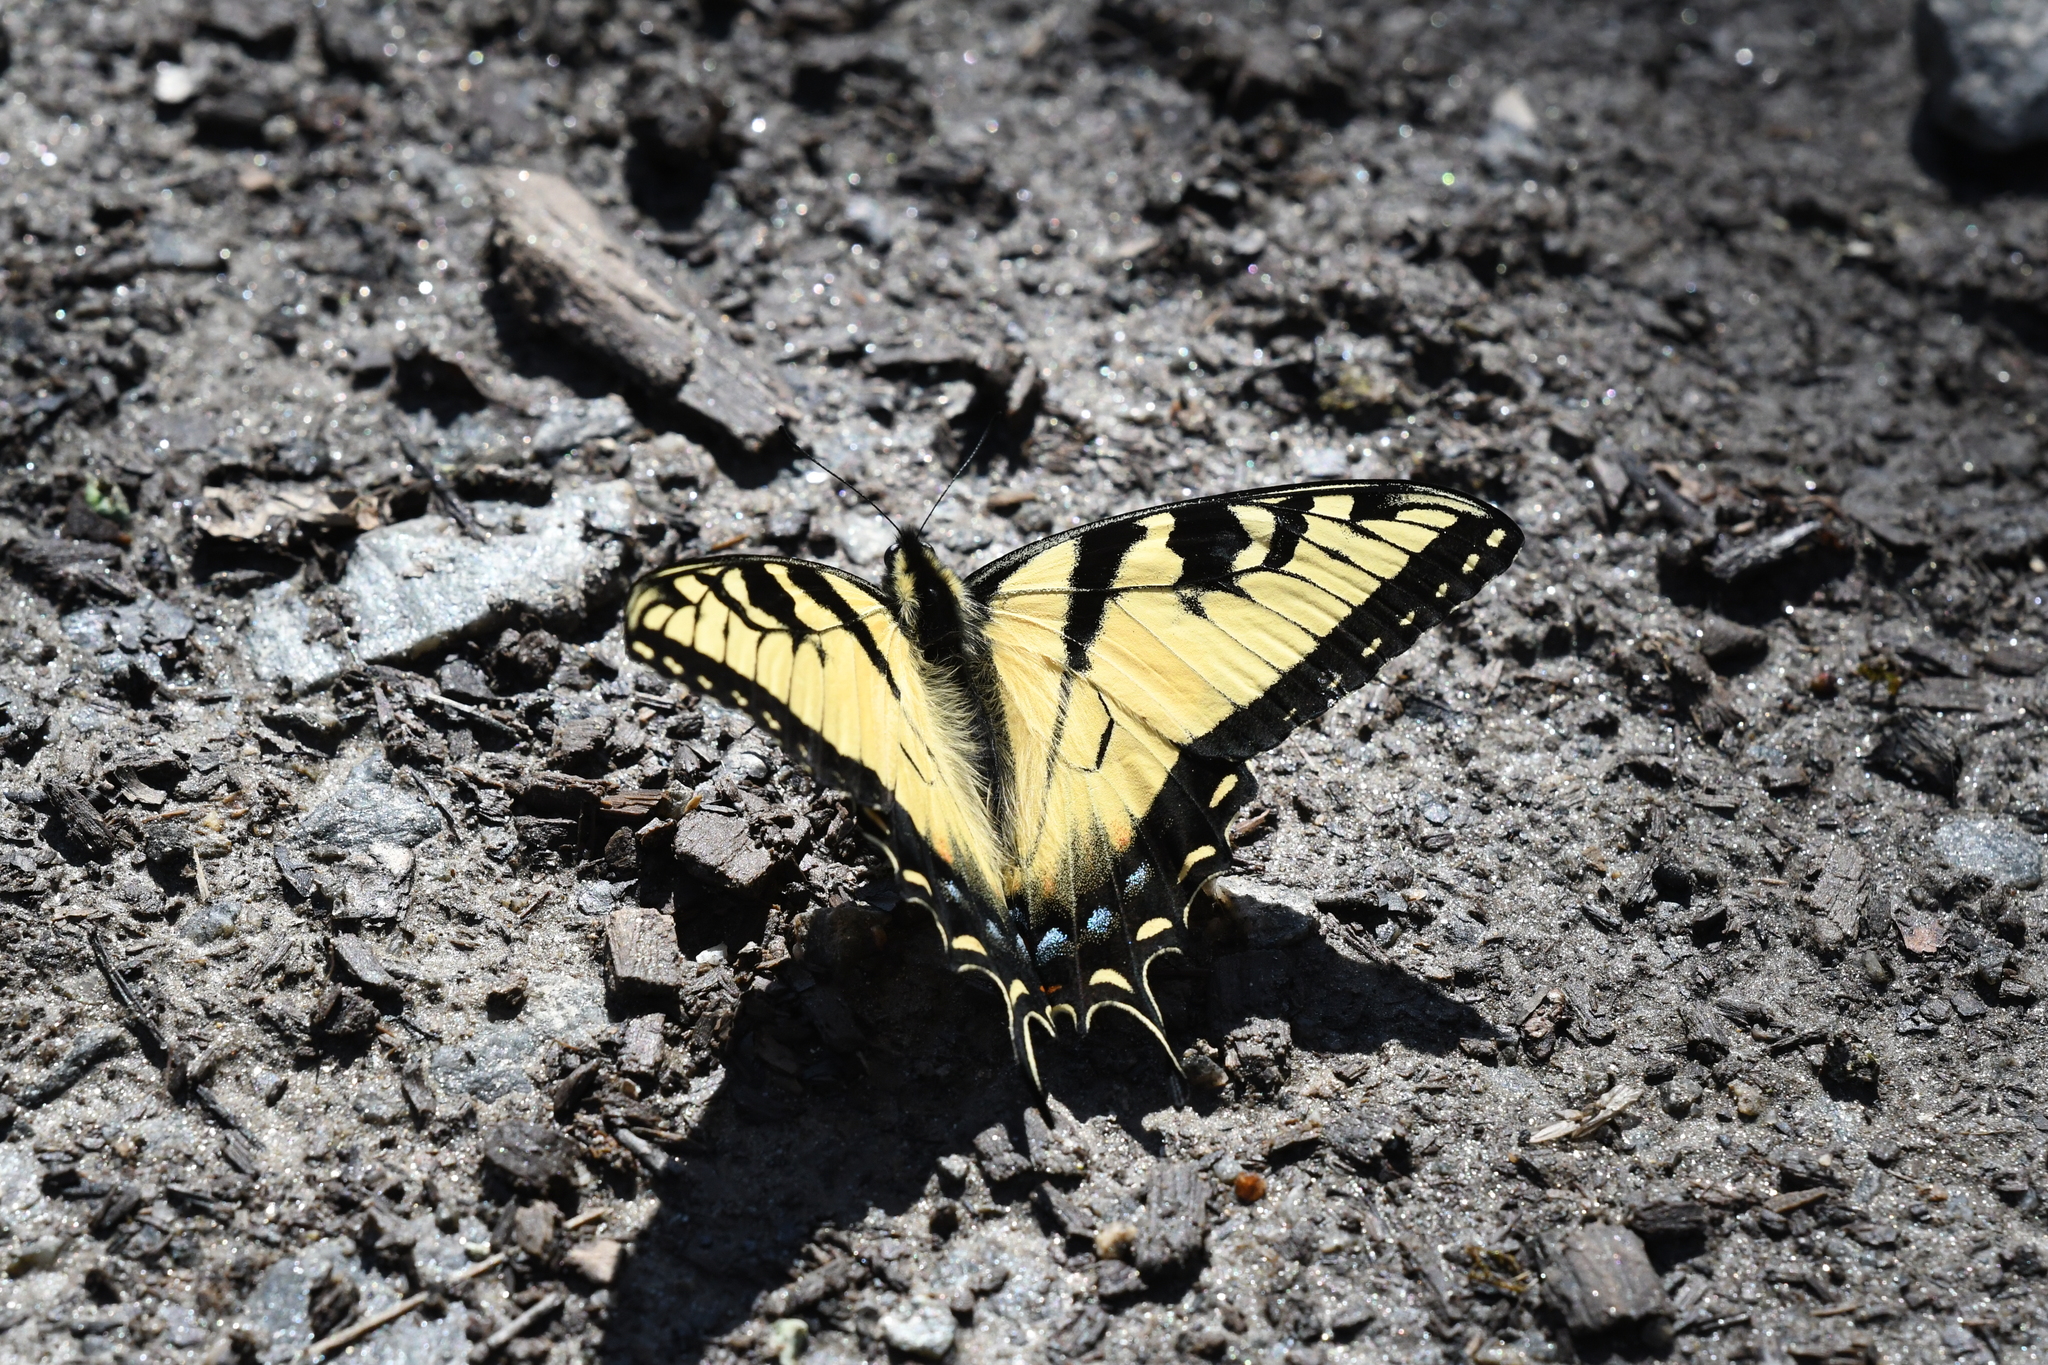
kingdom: Animalia
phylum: Arthropoda
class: Insecta
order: Lepidoptera
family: Papilionidae
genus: Papilio
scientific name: Papilio glaucus
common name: Tiger swallowtail
